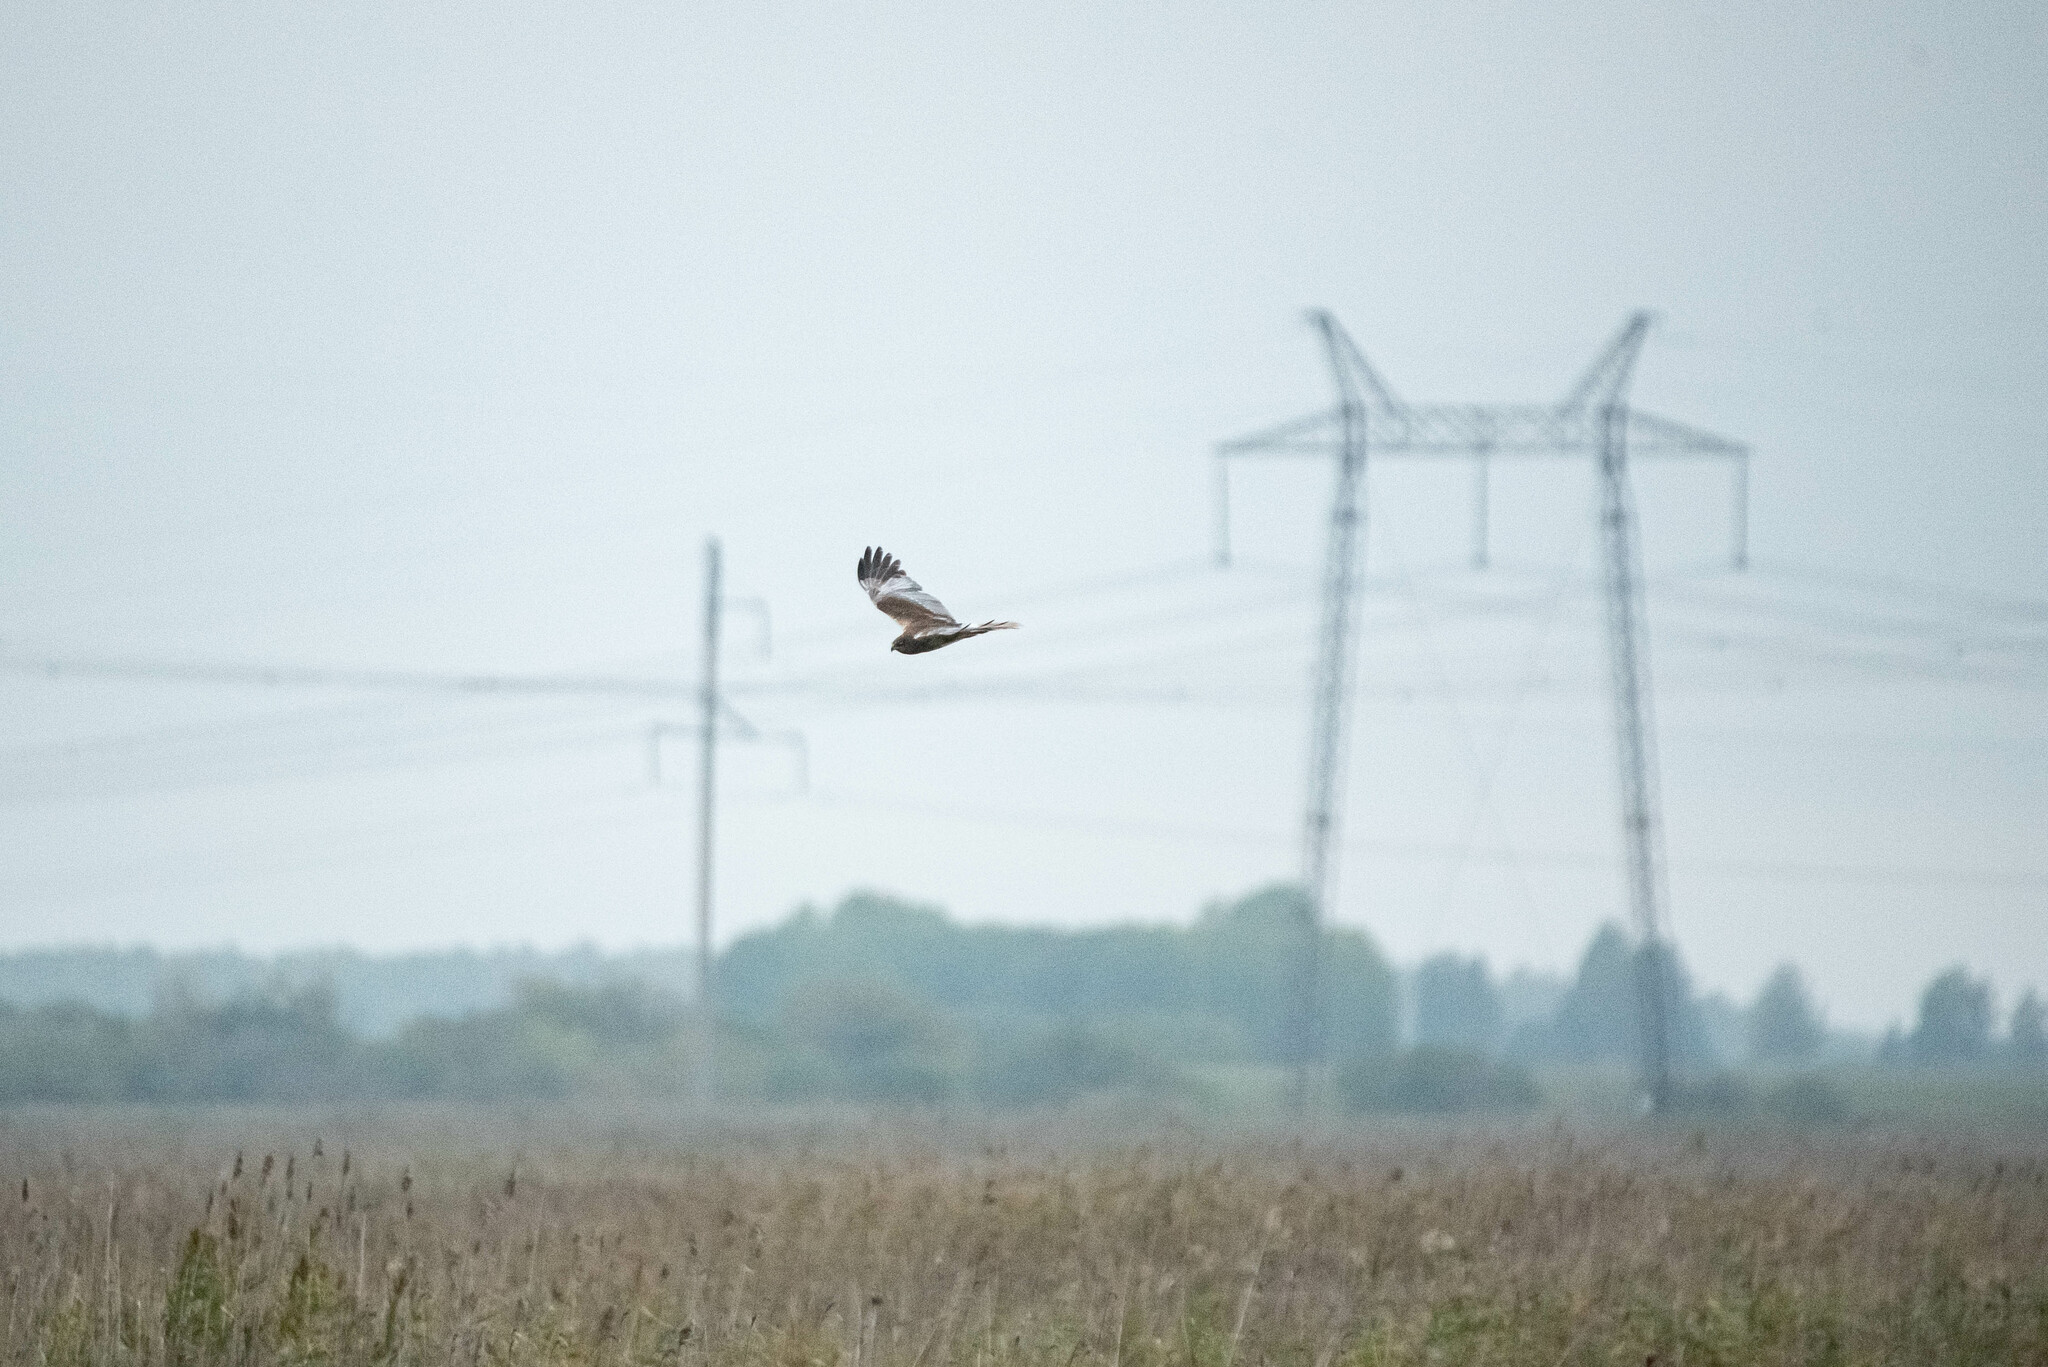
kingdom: Animalia
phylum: Chordata
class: Aves
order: Accipitriformes
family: Accipitridae
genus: Circus
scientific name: Circus aeruginosus
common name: Western marsh harrier
